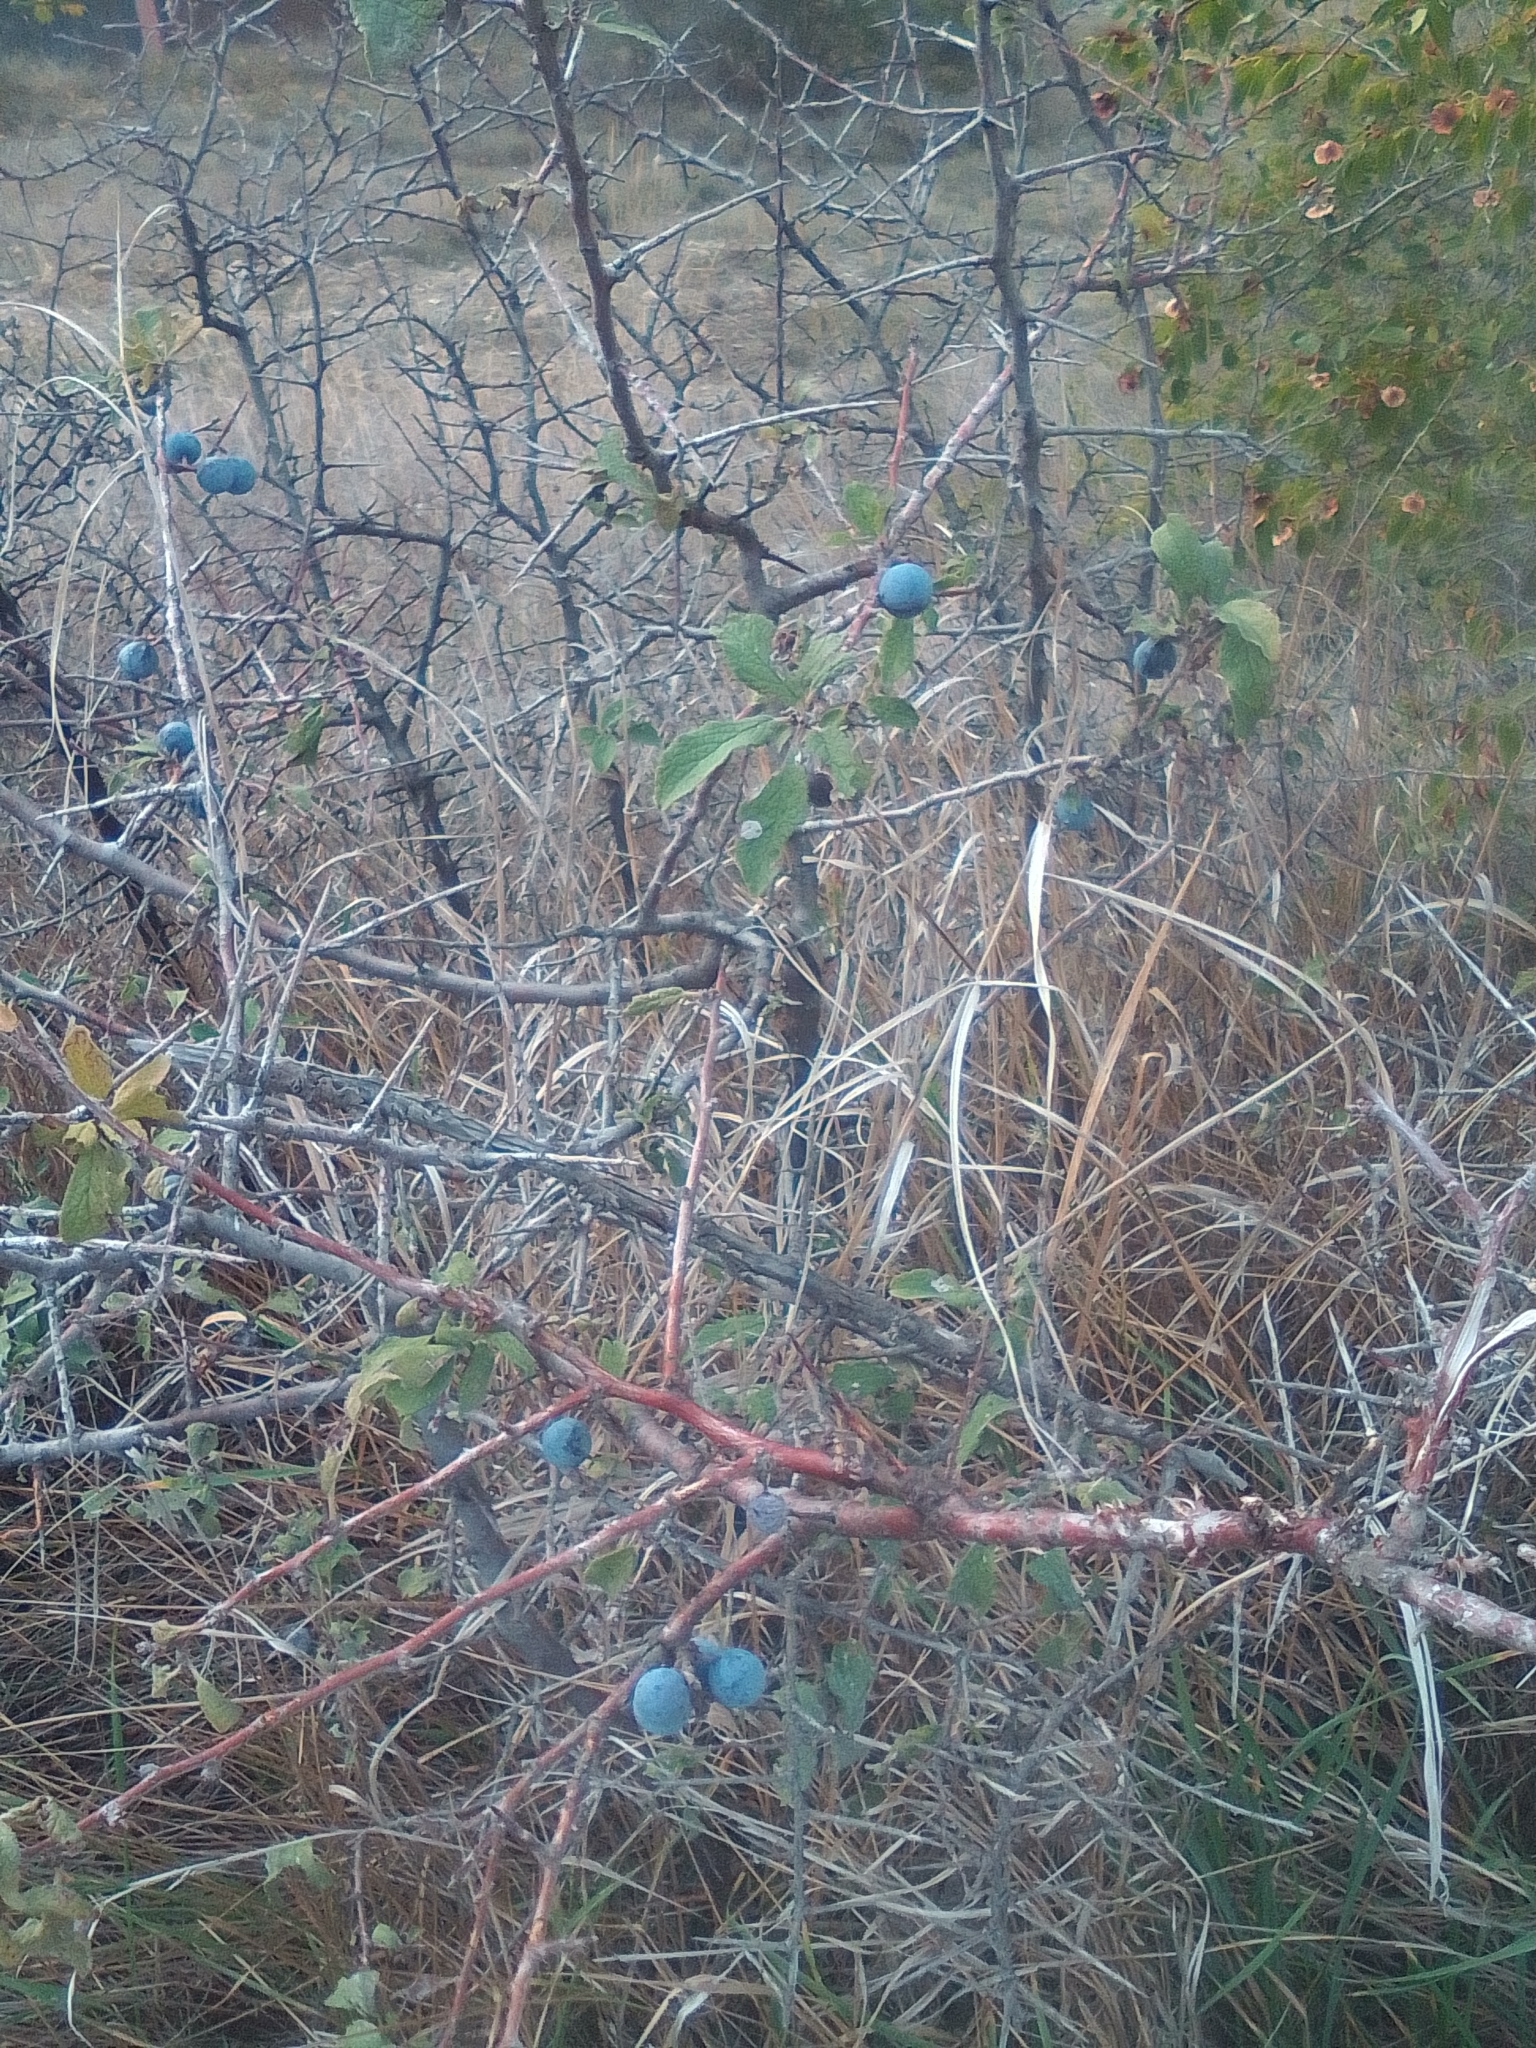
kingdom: Plantae
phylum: Tracheophyta
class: Magnoliopsida
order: Rosales
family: Rosaceae
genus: Prunus
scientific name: Prunus spinosa
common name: Blackthorn
